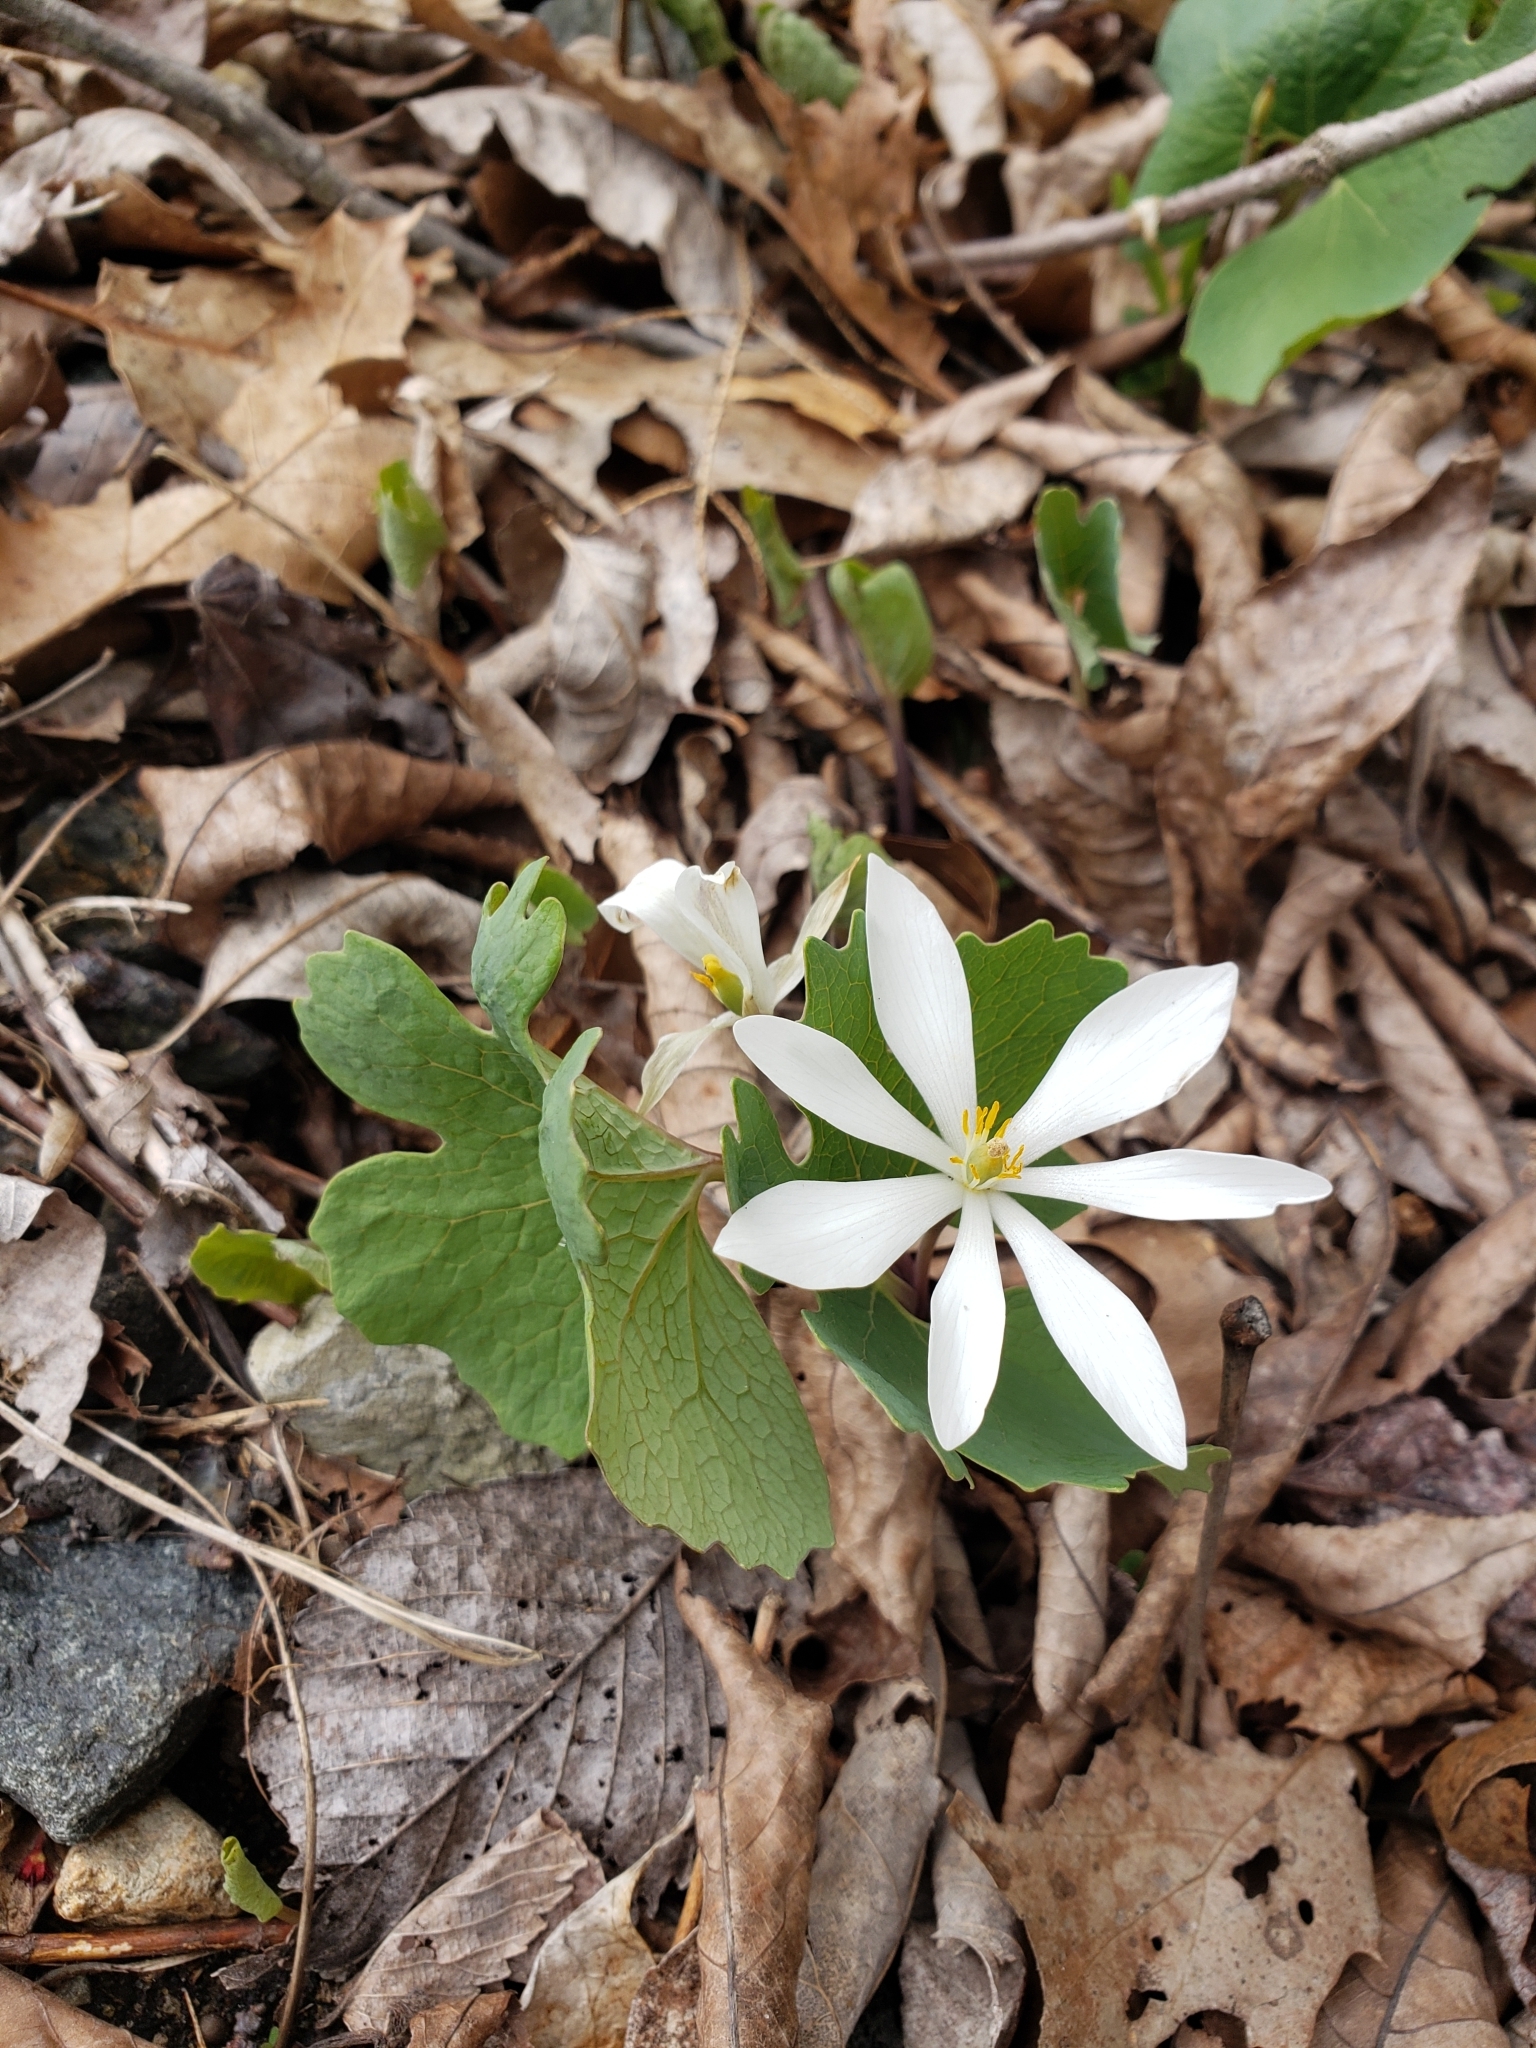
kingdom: Plantae
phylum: Tracheophyta
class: Magnoliopsida
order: Ranunculales
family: Papaveraceae
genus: Sanguinaria
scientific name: Sanguinaria canadensis
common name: Bloodroot
